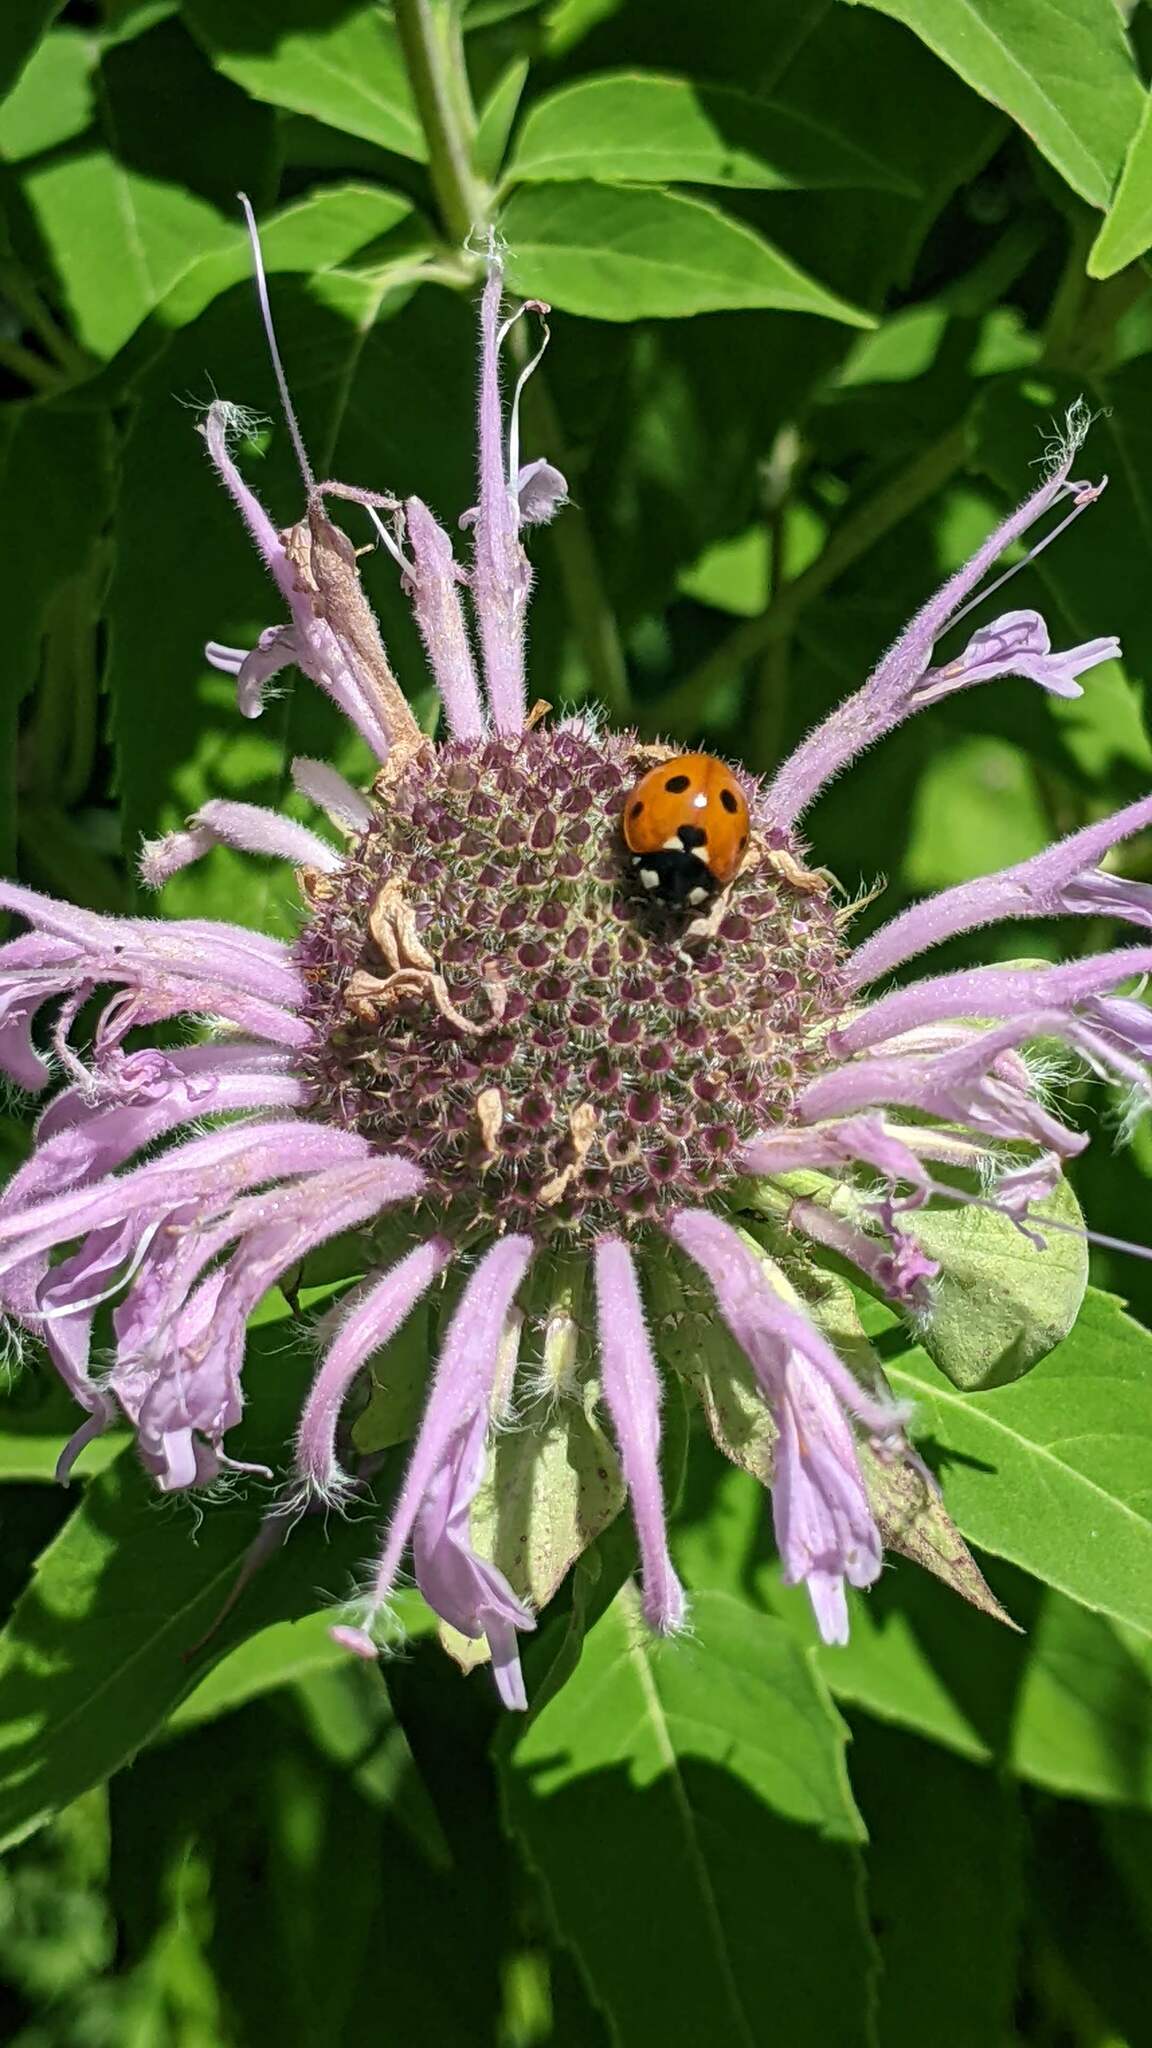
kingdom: Animalia
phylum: Arthropoda
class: Insecta
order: Coleoptera
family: Coccinellidae
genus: Coccinella
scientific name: Coccinella septempunctata
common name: Sevenspotted lady beetle
